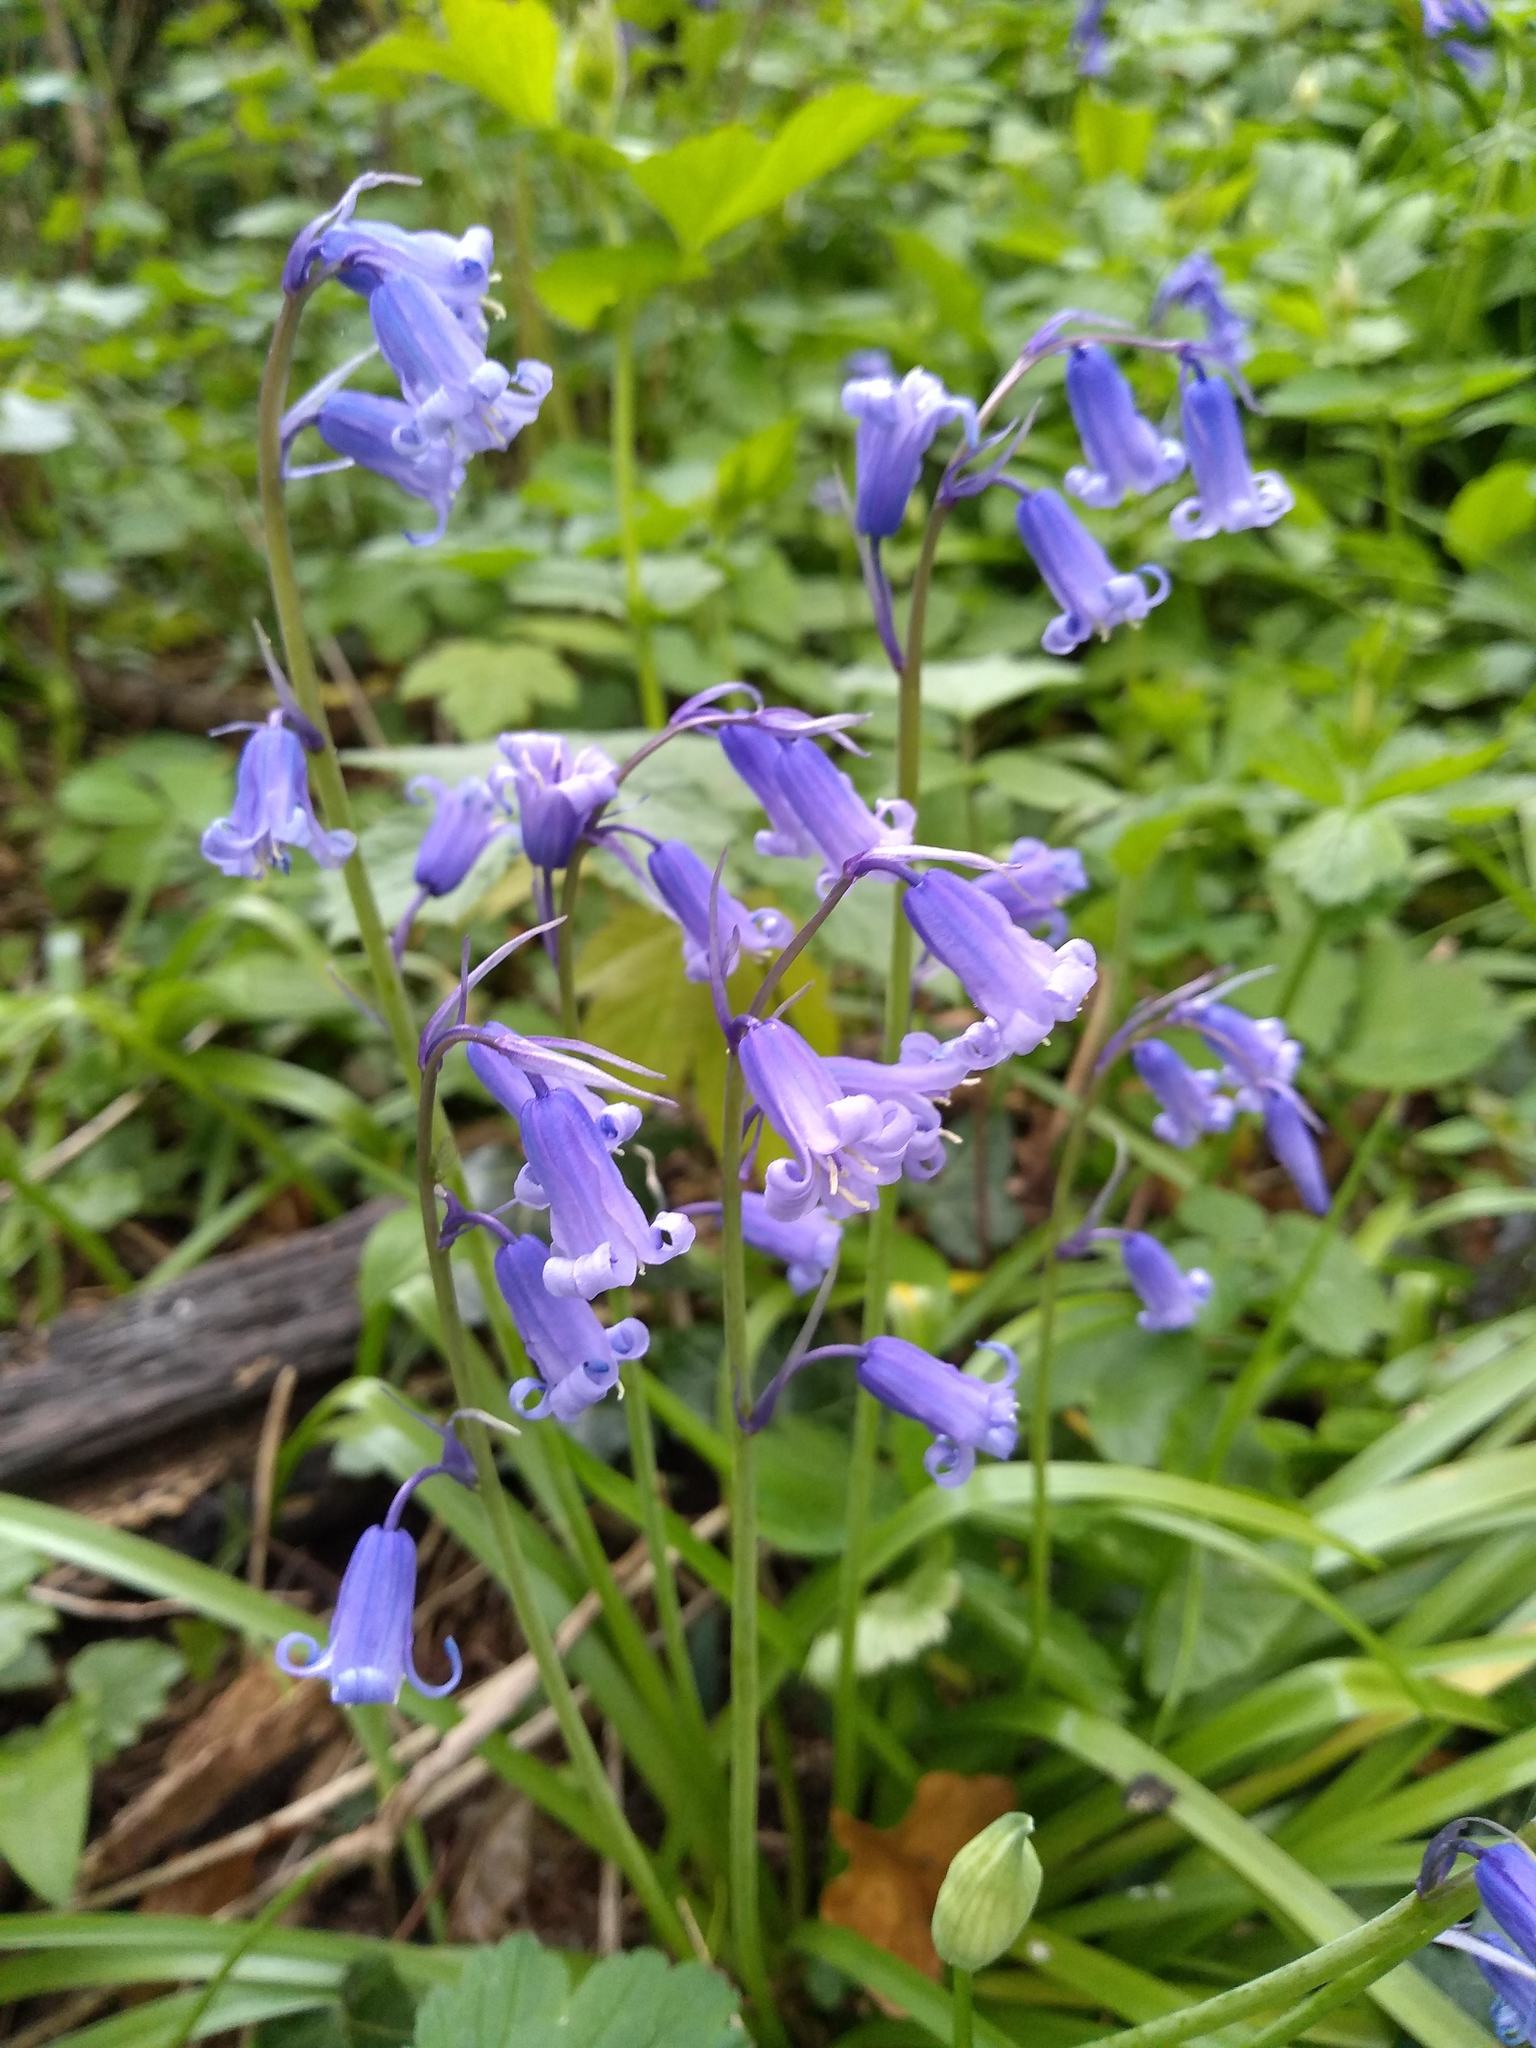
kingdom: Plantae
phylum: Tracheophyta
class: Liliopsida
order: Asparagales
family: Asparagaceae
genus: Hyacinthoides
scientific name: Hyacinthoides non-scripta
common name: Bluebell
